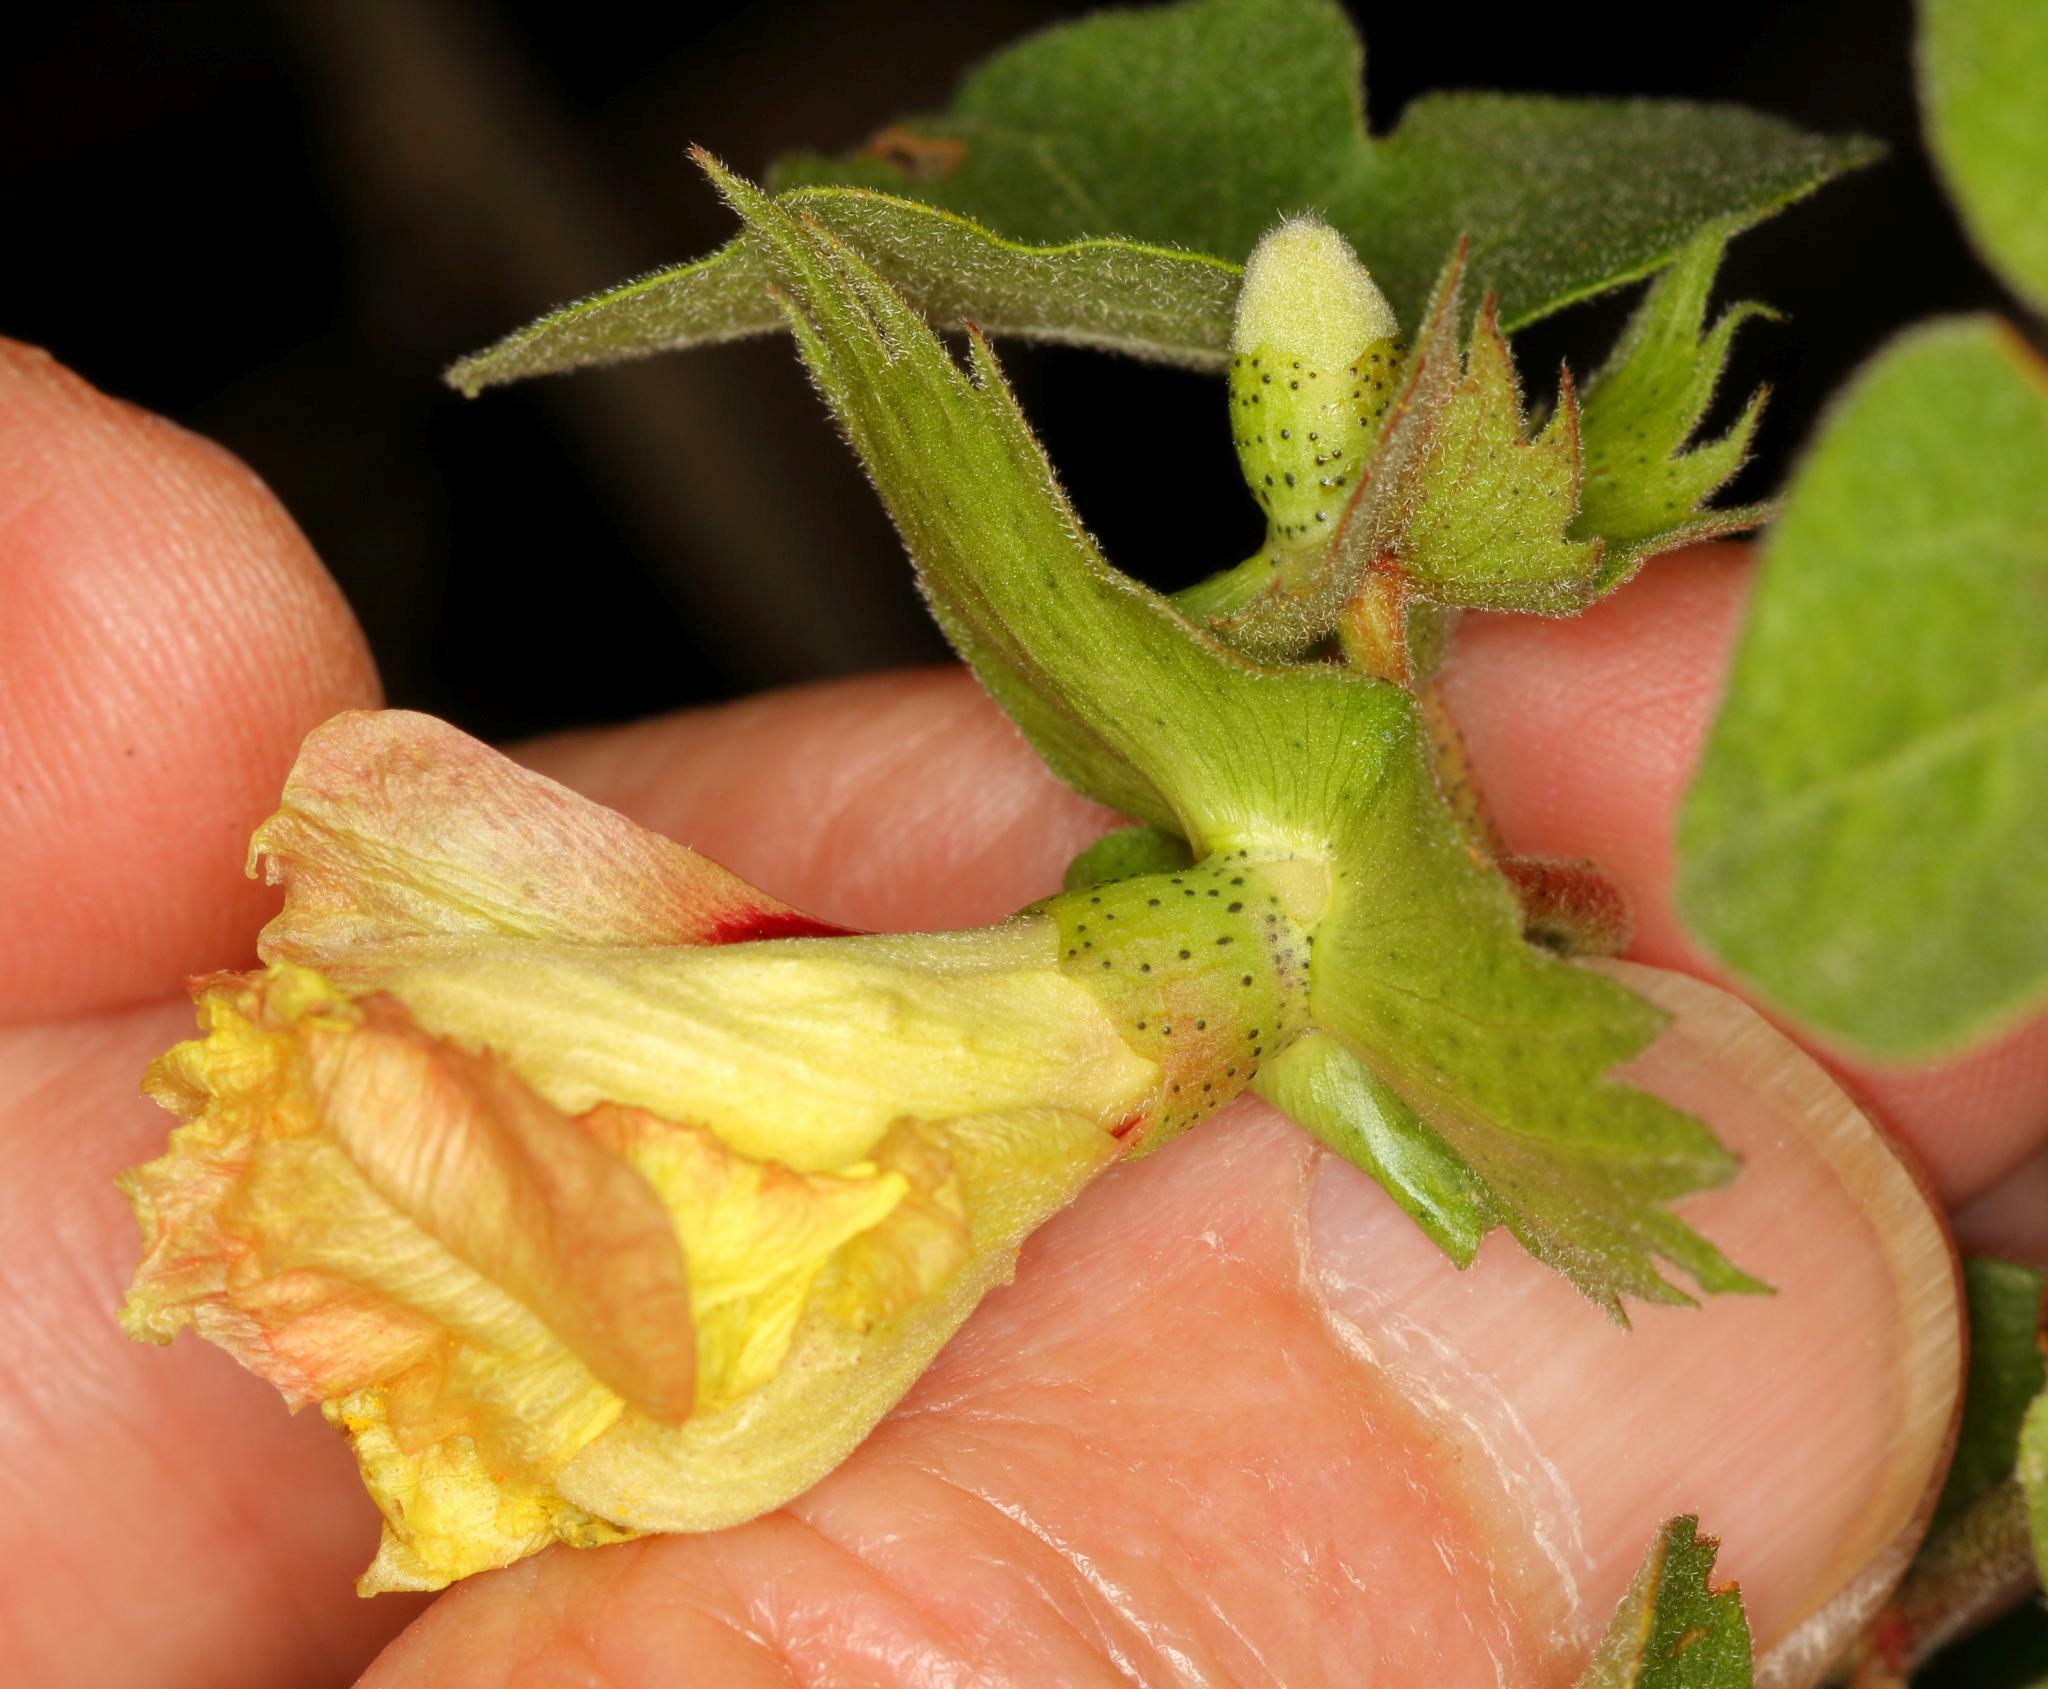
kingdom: Plantae
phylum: Tracheophyta
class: Magnoliopsida
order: Malvales
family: Malvaceae
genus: Gossypium
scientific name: Gossypium herbaceum
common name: Levant cotton
